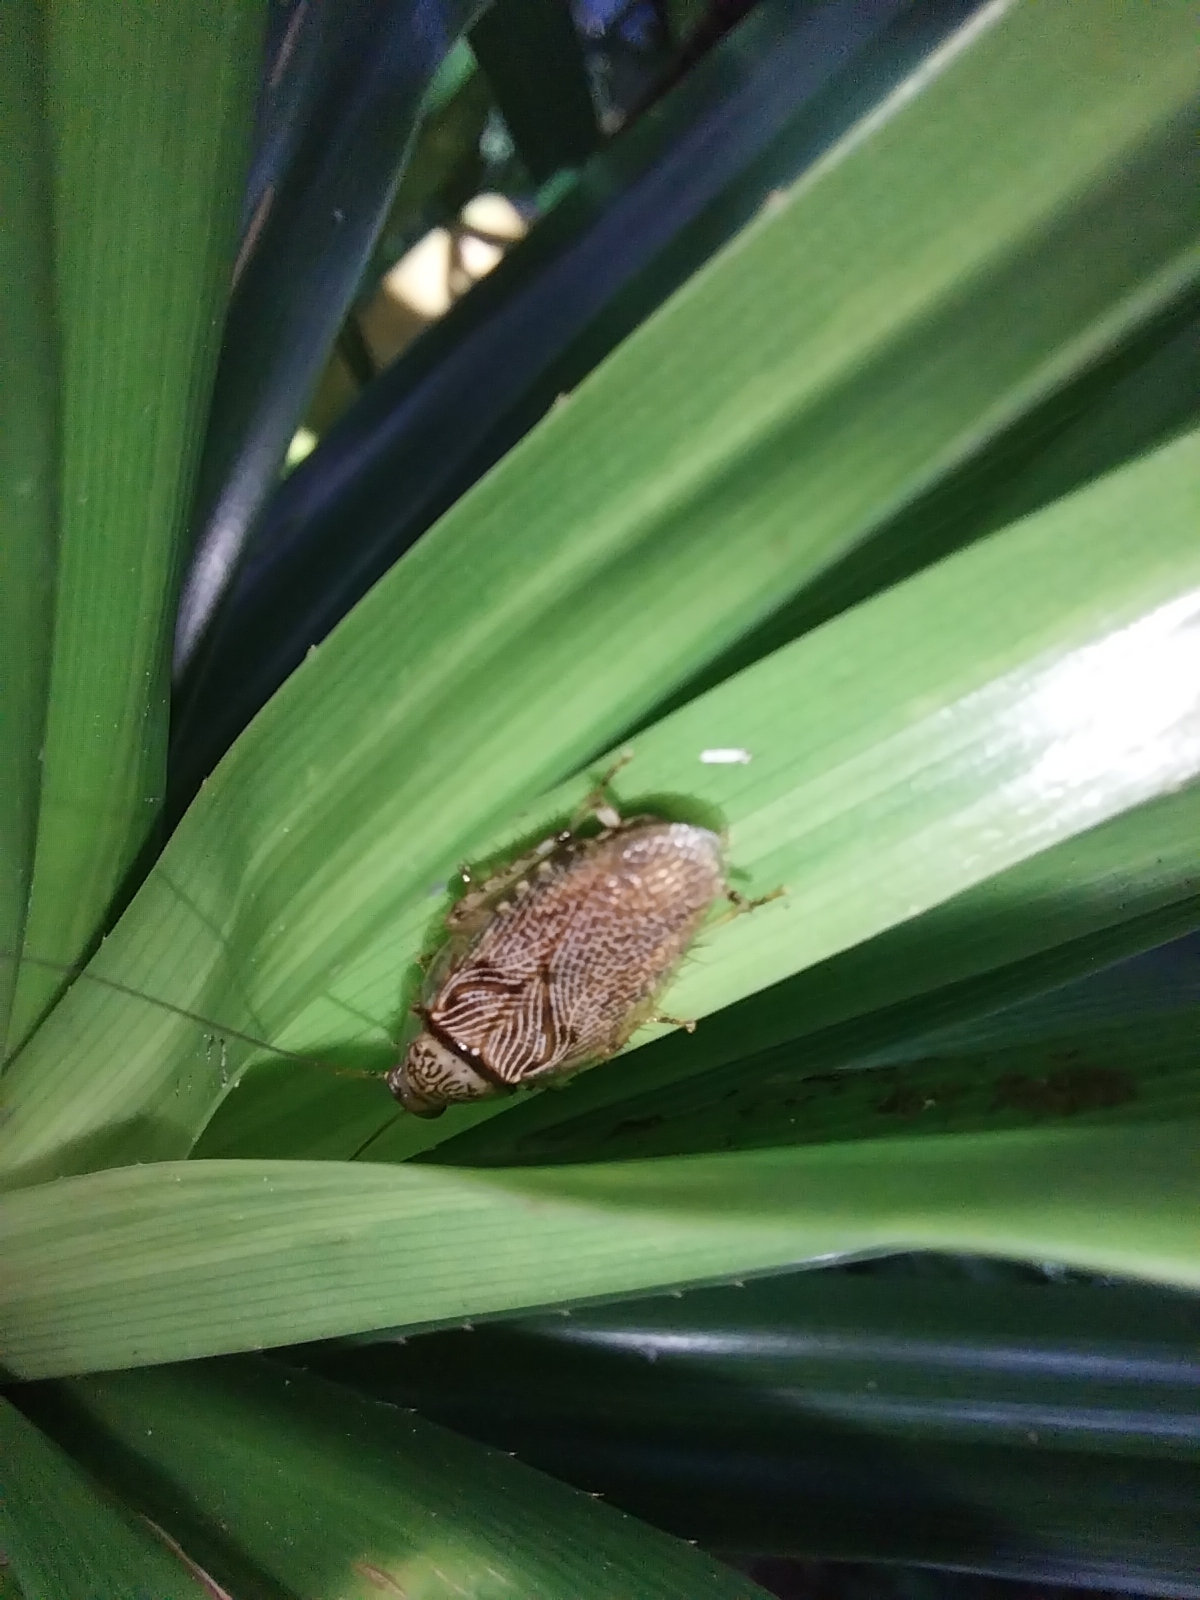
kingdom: Animalia
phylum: Arthropoda
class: Insecta
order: Blattodea
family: Ectobiidae
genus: Balta
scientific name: Balta notulata
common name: Cockroach
